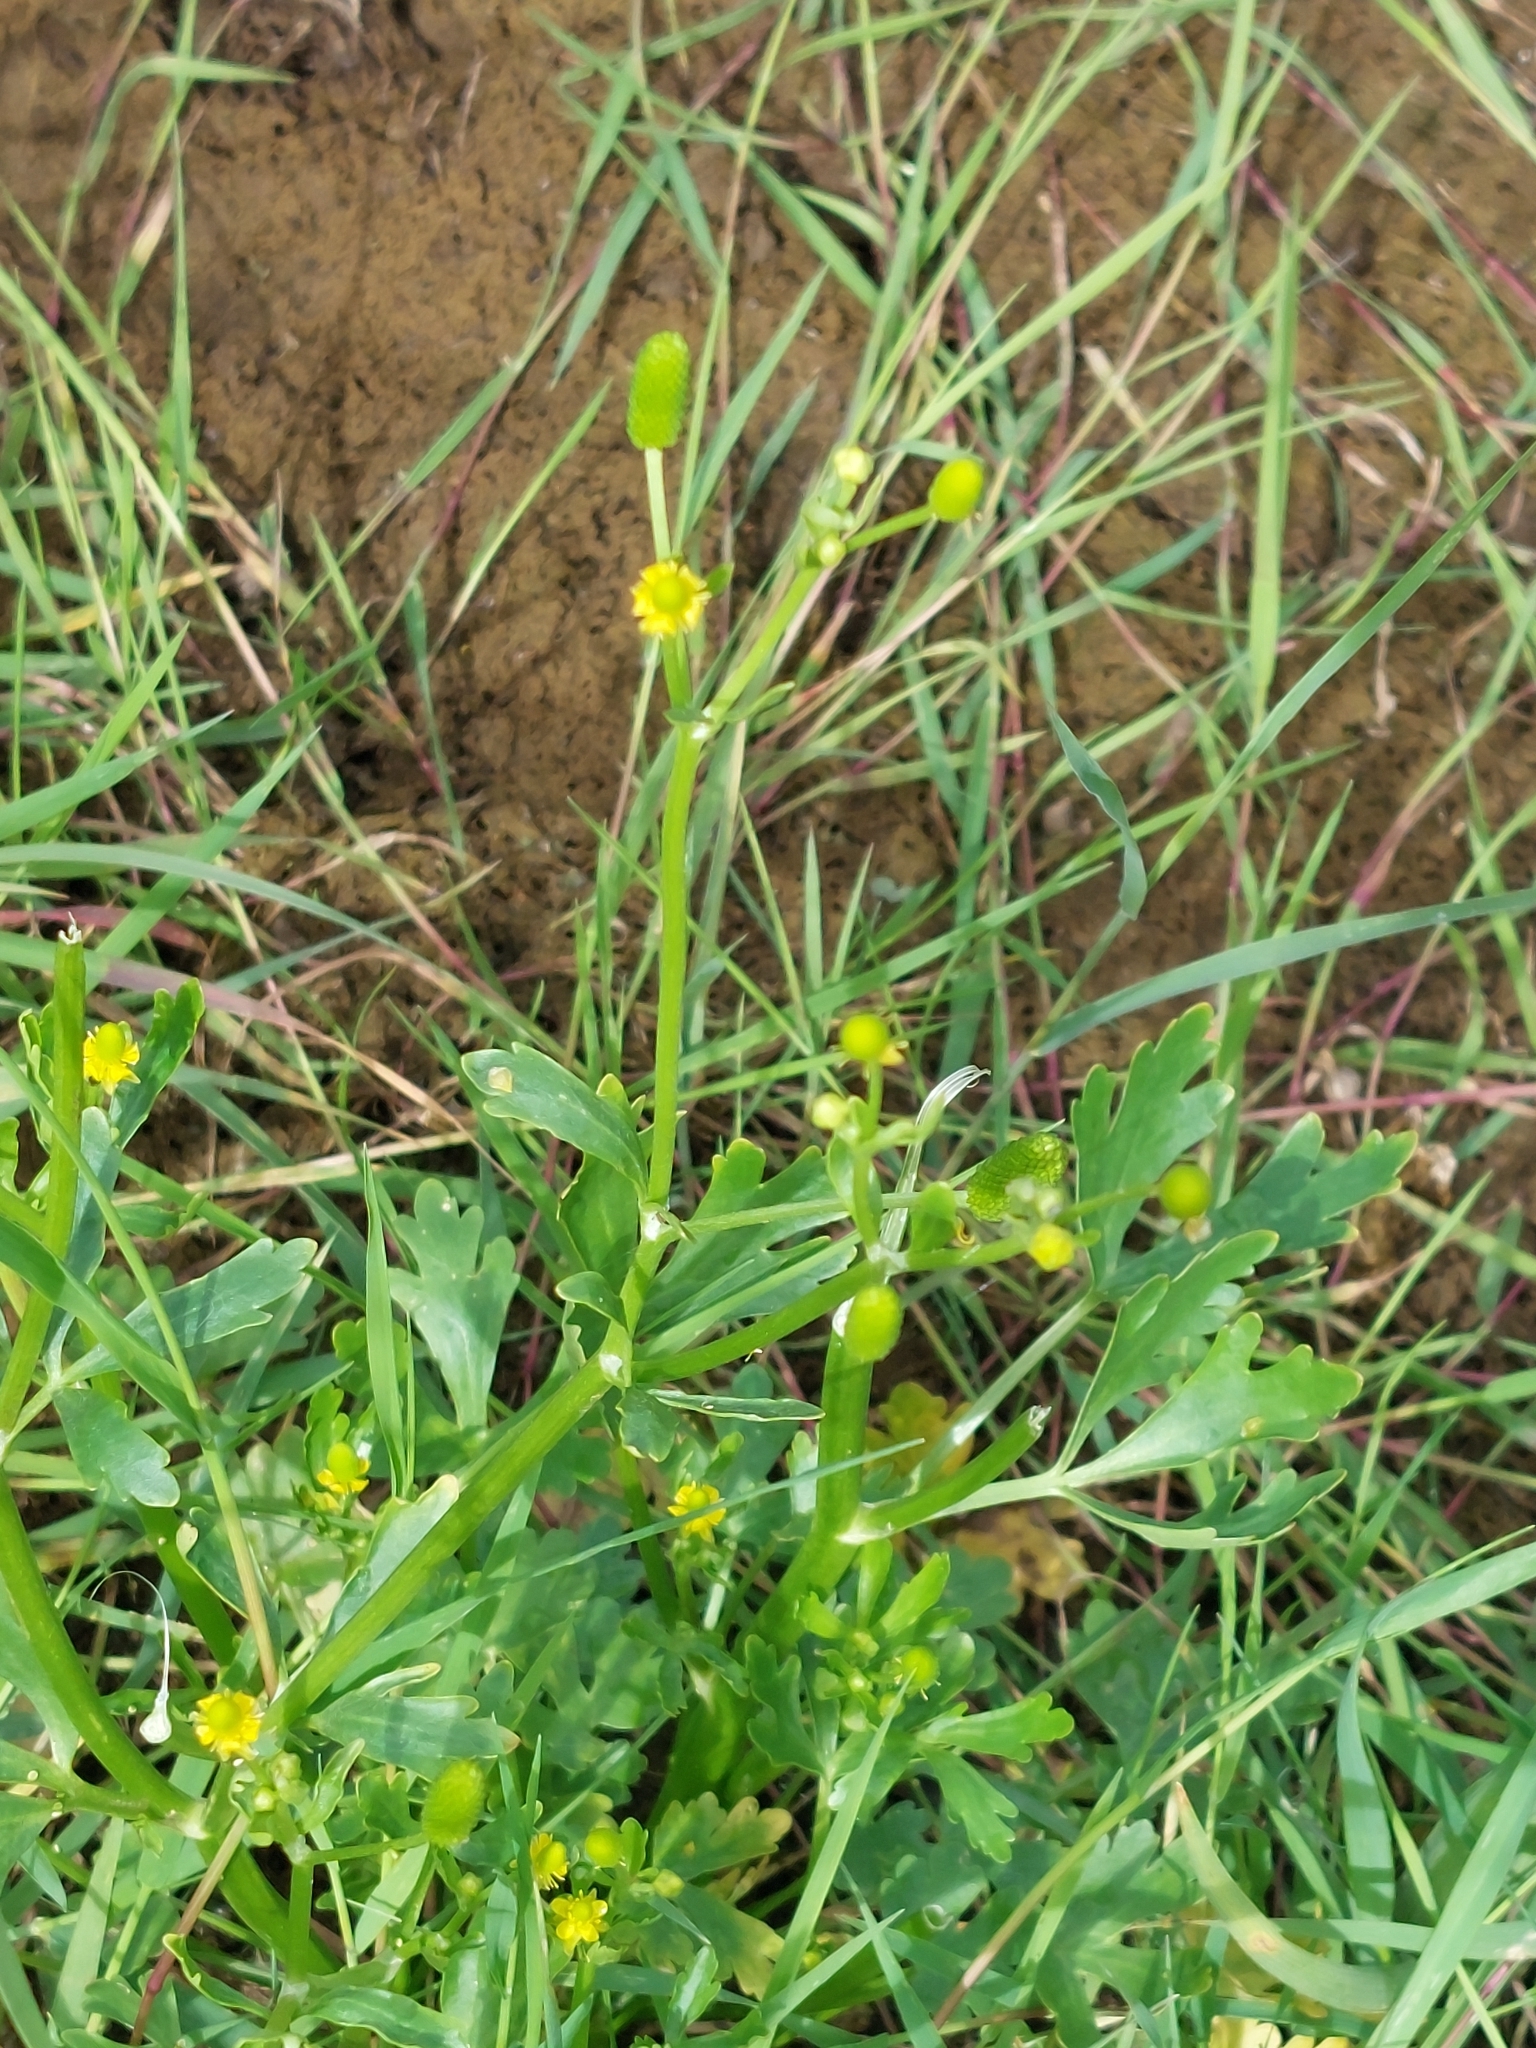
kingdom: Plantae
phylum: Tracheophyta
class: Magnoliopsida
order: Ranunculales
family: Ranunculaceae
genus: Ranunculus
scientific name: Ranunculus sceleratus
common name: Celery-leaved buttercup
